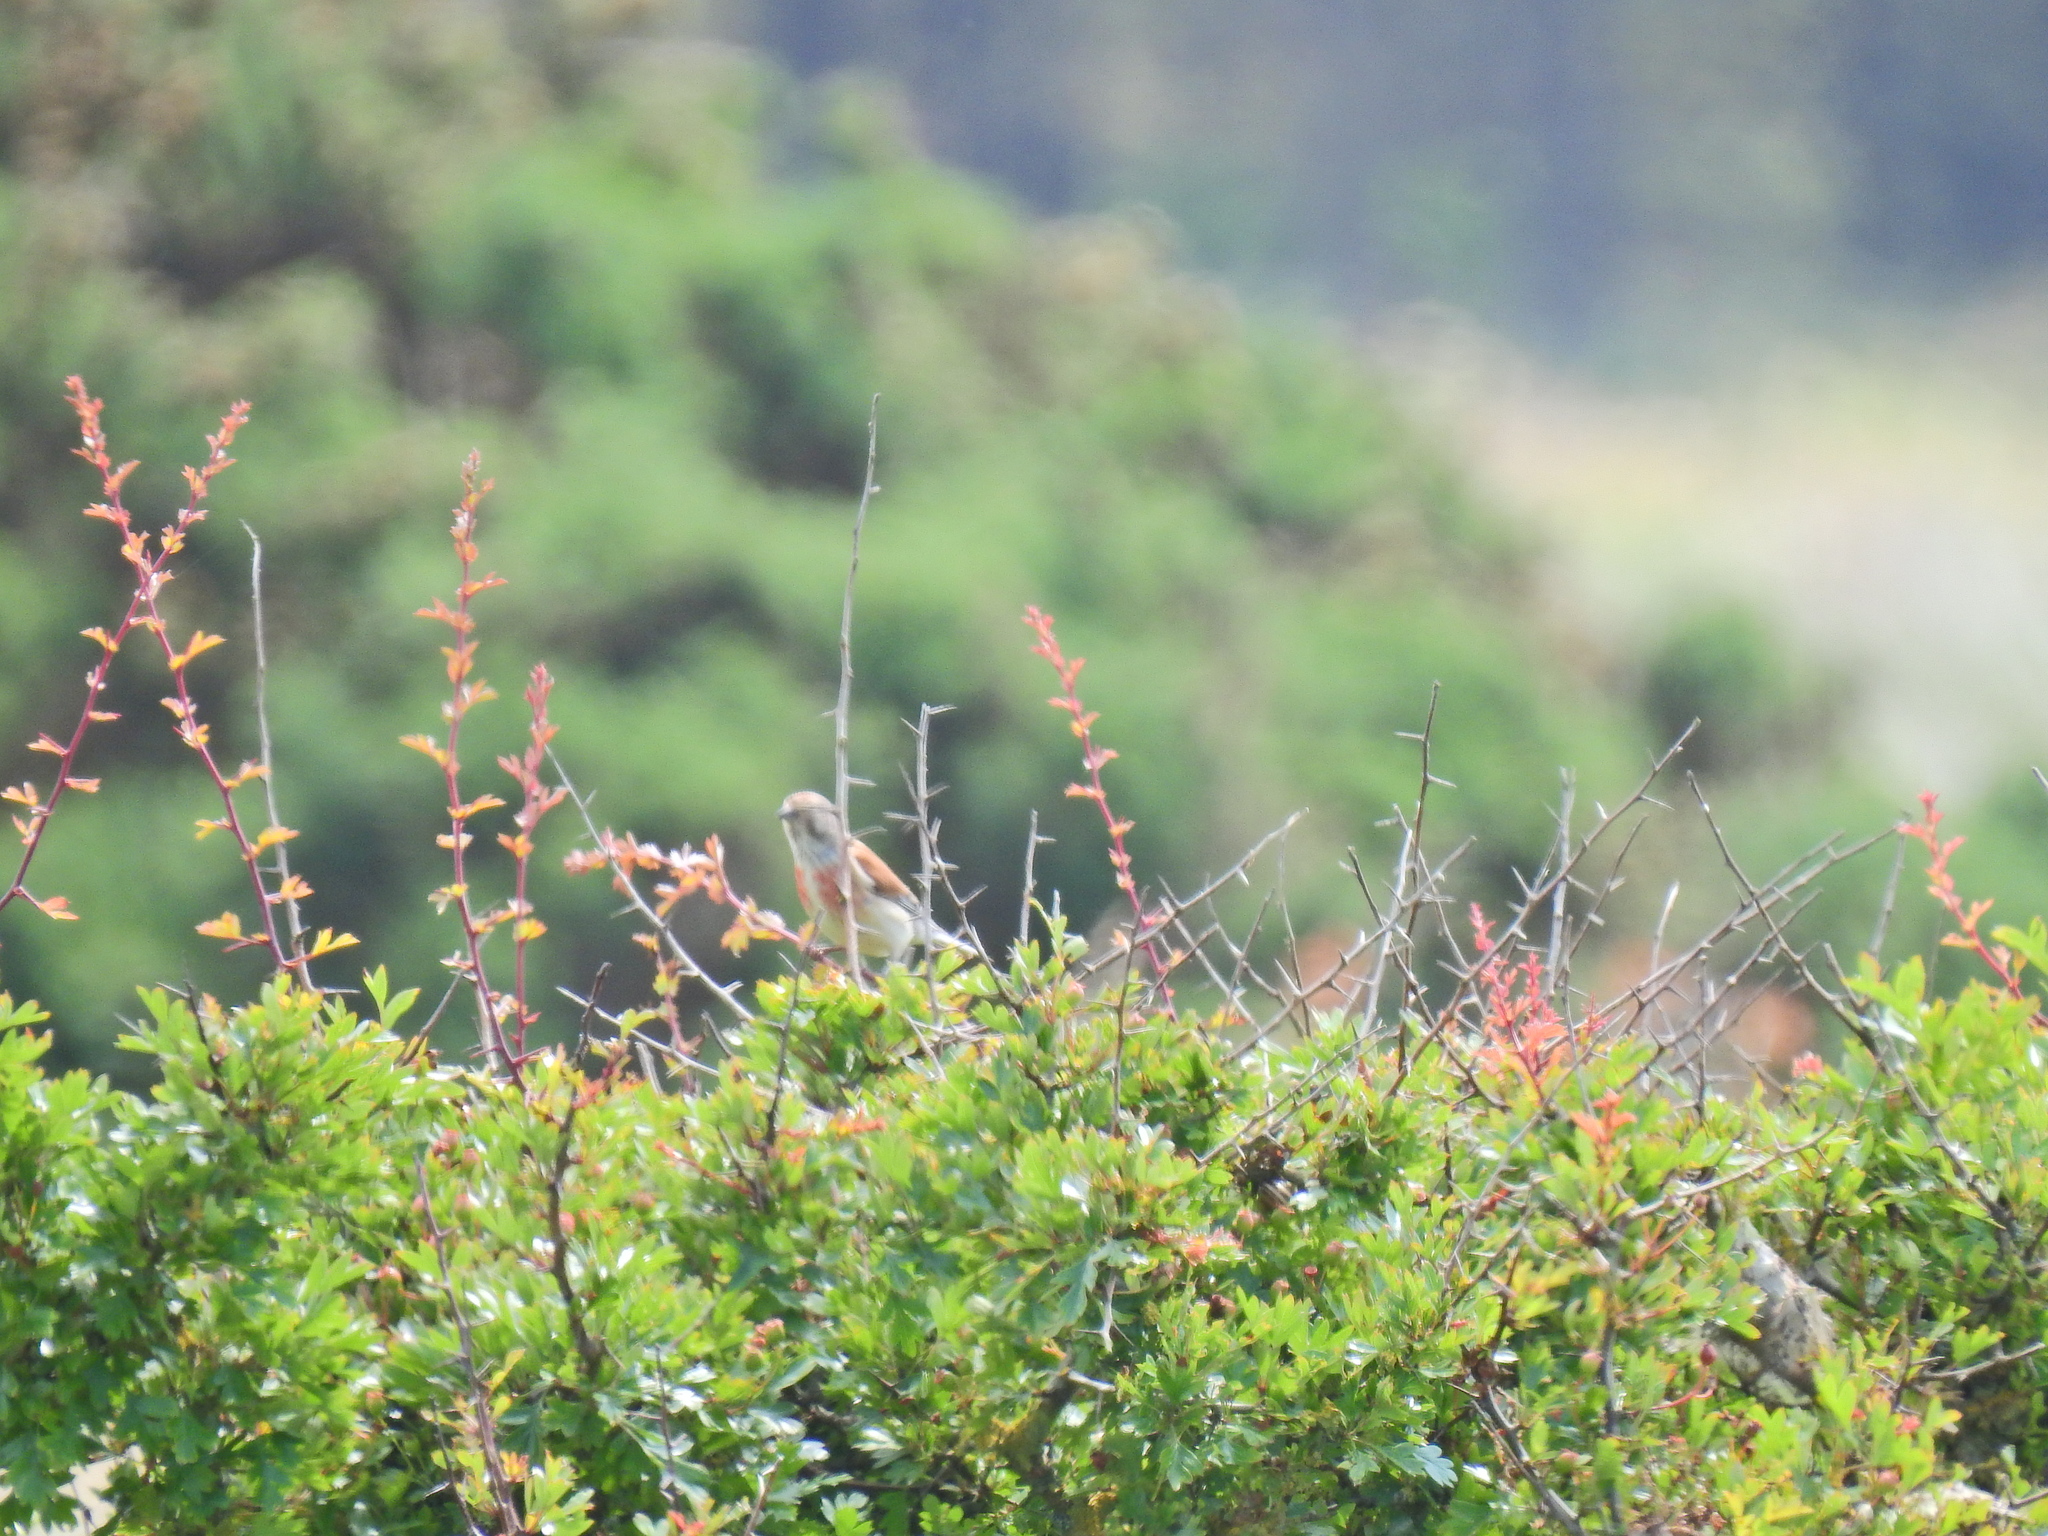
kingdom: Animalia
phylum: Chordata
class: Aves
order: Passeriformes
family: Fringillidae
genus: Linaria
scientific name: Linaria cannabina
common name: Common linnet
